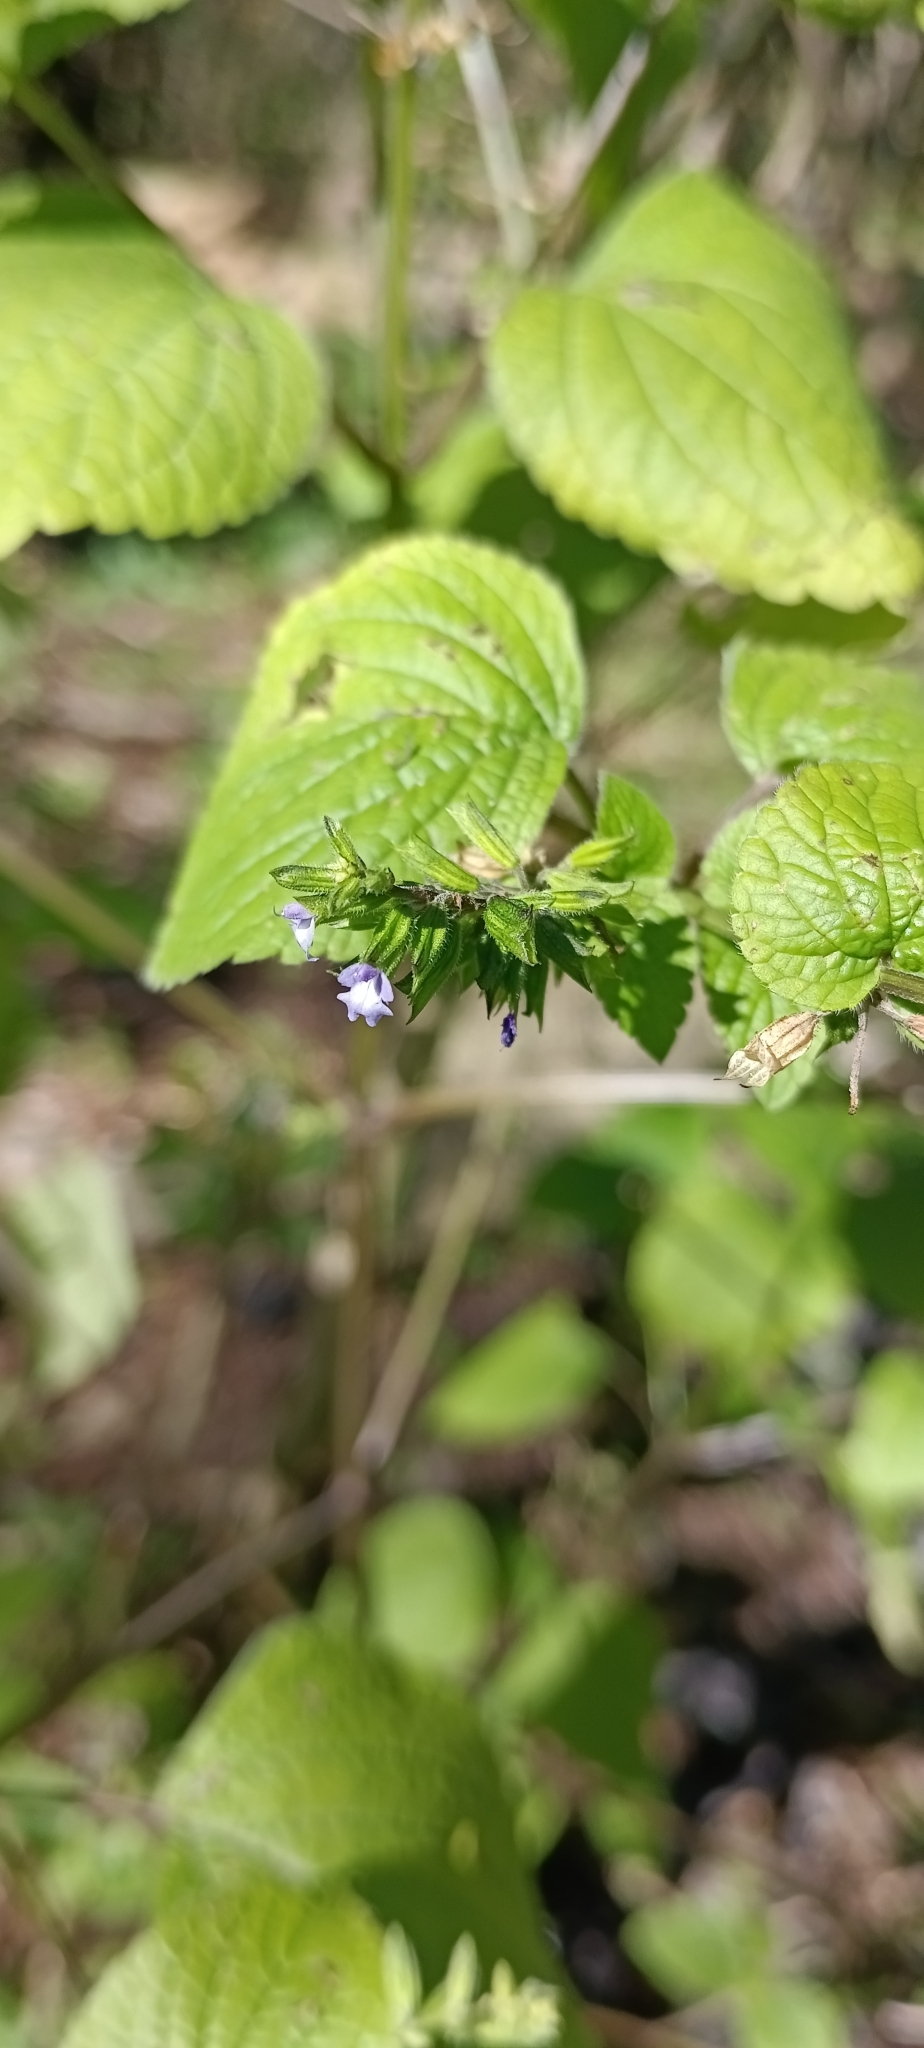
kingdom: Plantae
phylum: Tracheophyta
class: Magnoliopsida
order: Lamiales
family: Lamiaceae
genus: Salvia
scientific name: Salvia tiliifolia
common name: Lindenleaf sage
